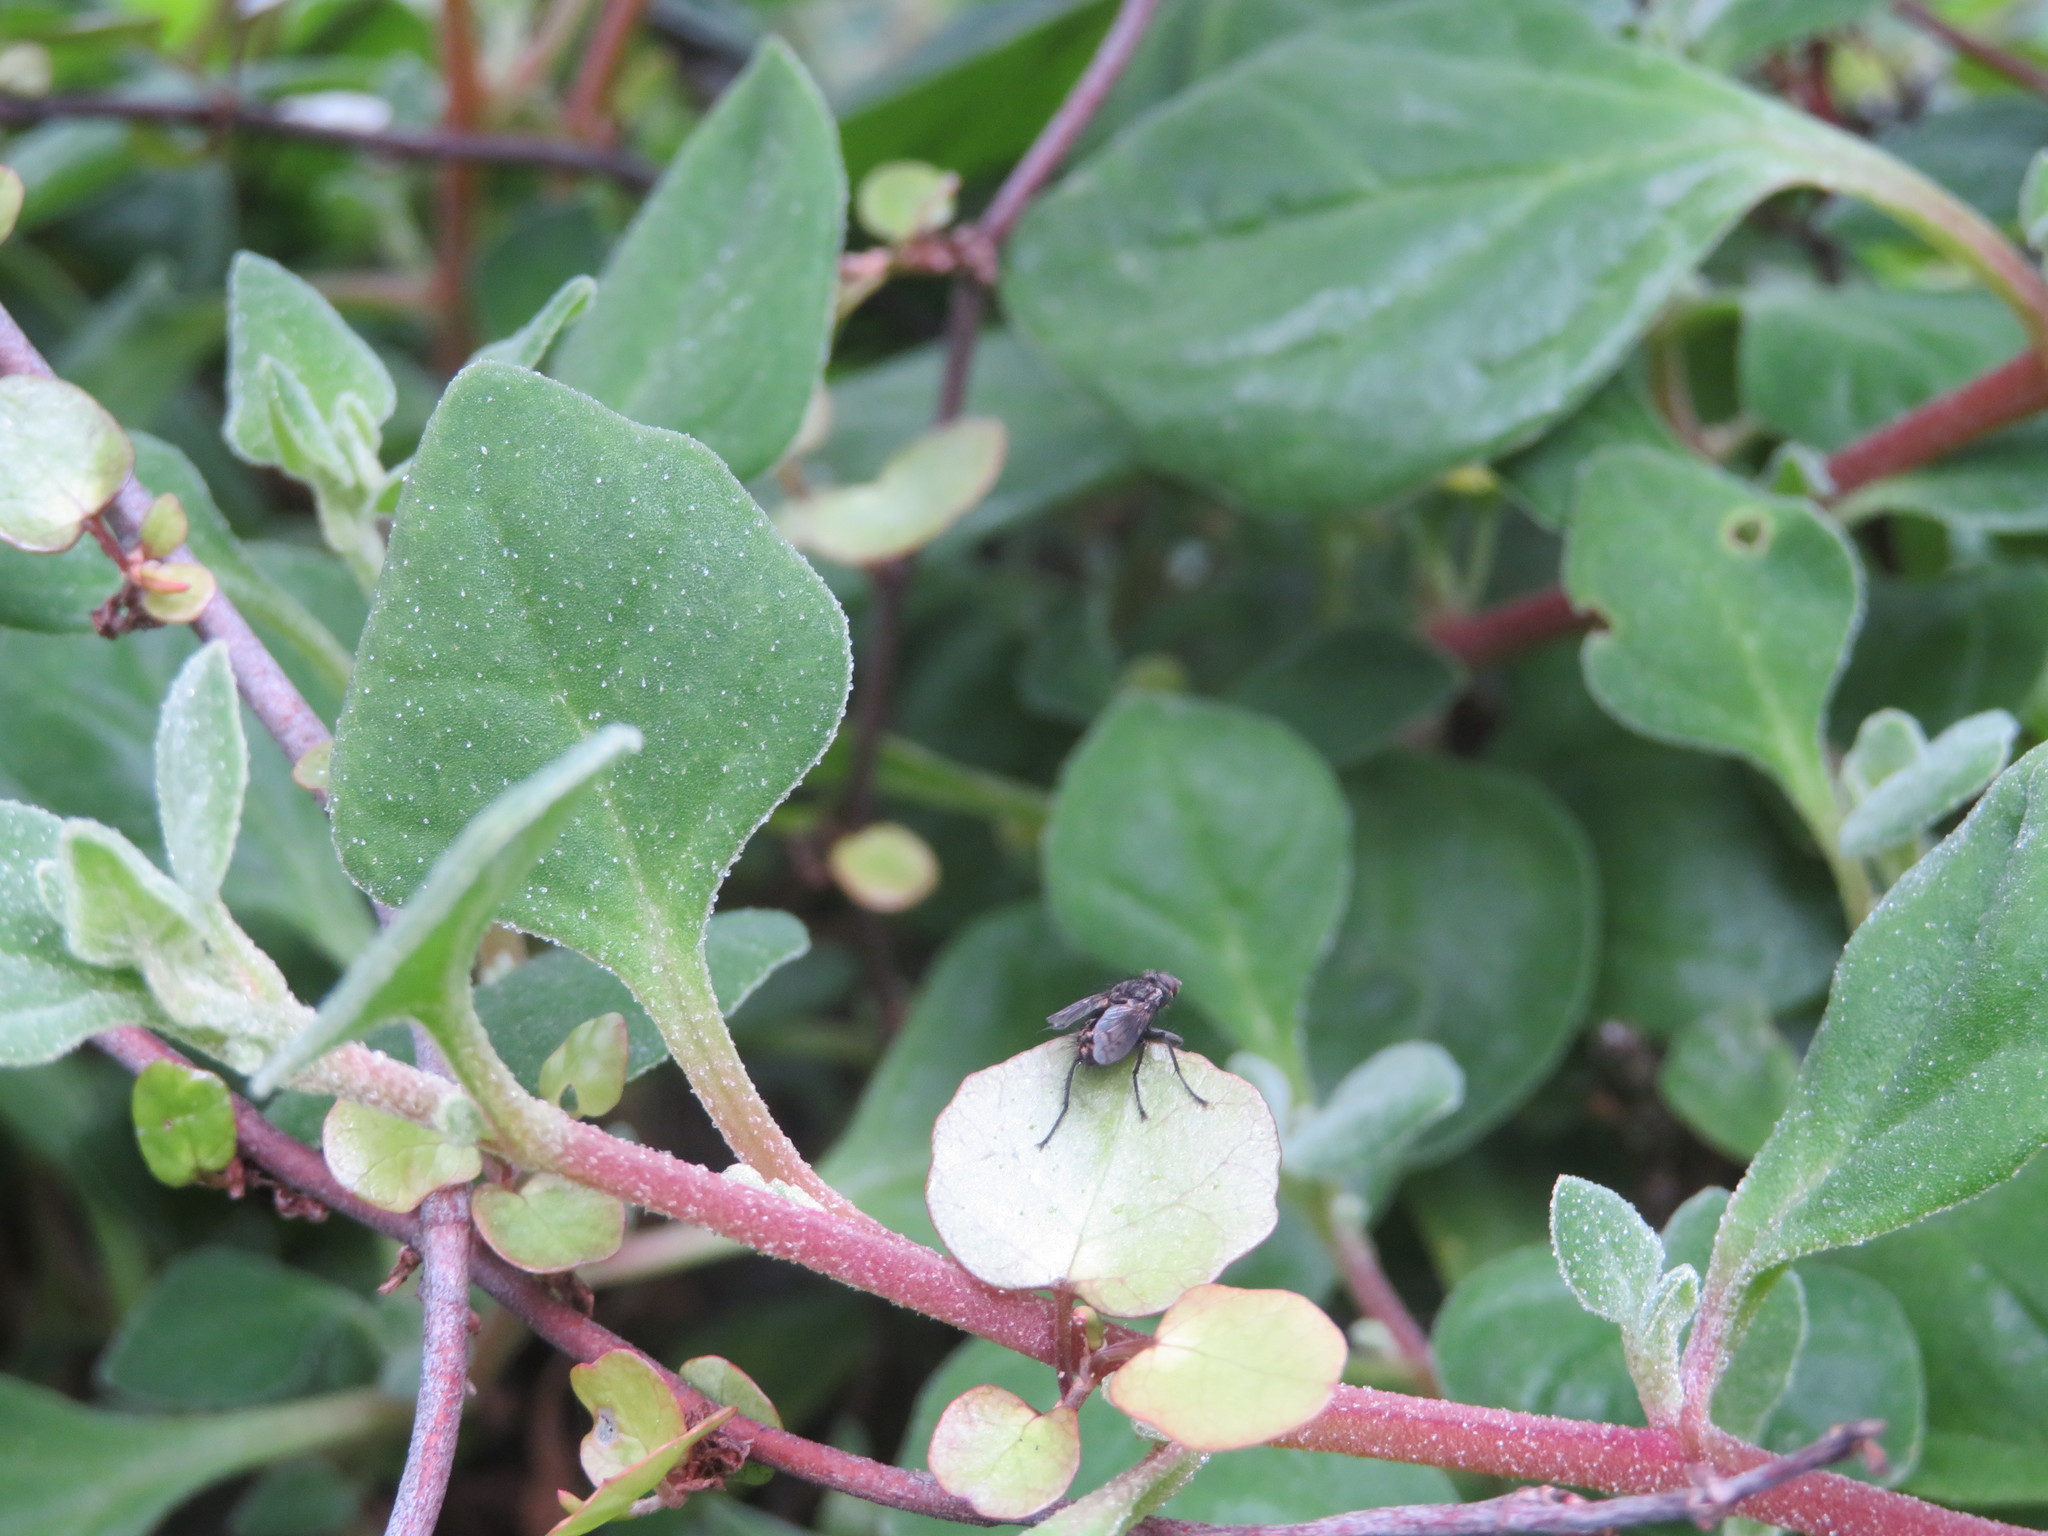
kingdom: Animalia
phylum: Arthropoda
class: Insecta
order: Diptera
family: Tachinidae
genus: Mallochomacquartia
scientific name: Mallochomacquartia vexata
